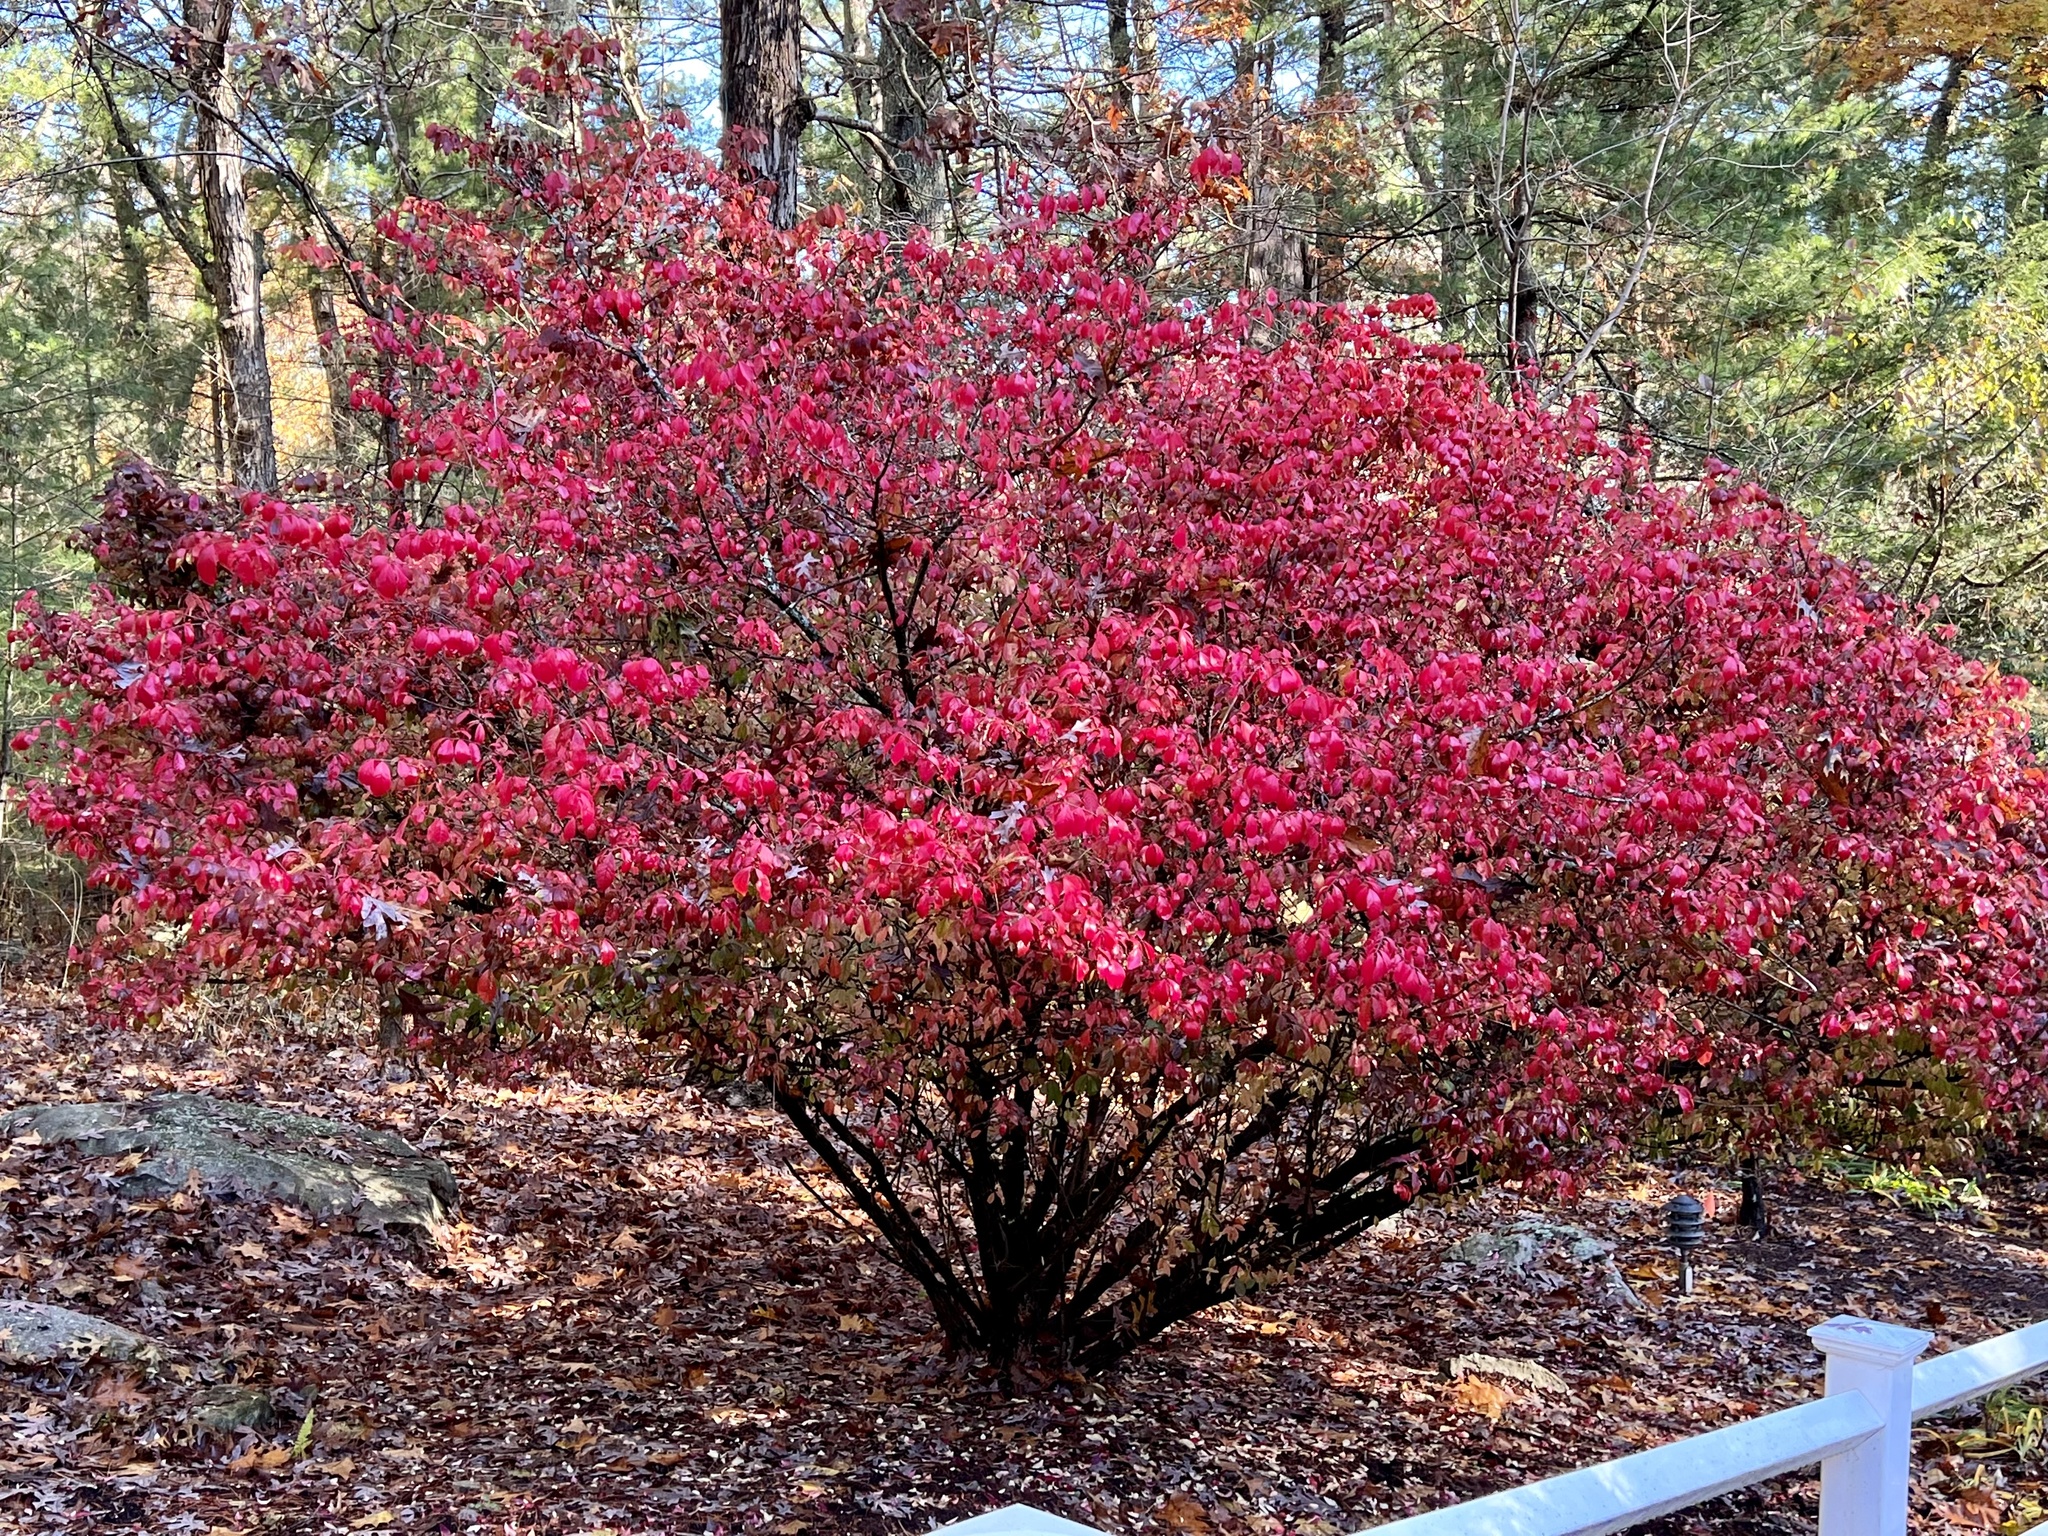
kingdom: Plantae
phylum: Tracheophyta
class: Magnoliopsida
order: Celastrales
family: Celastraceae
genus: Euonymus
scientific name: Euonymus alatus
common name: Winged euonymus
